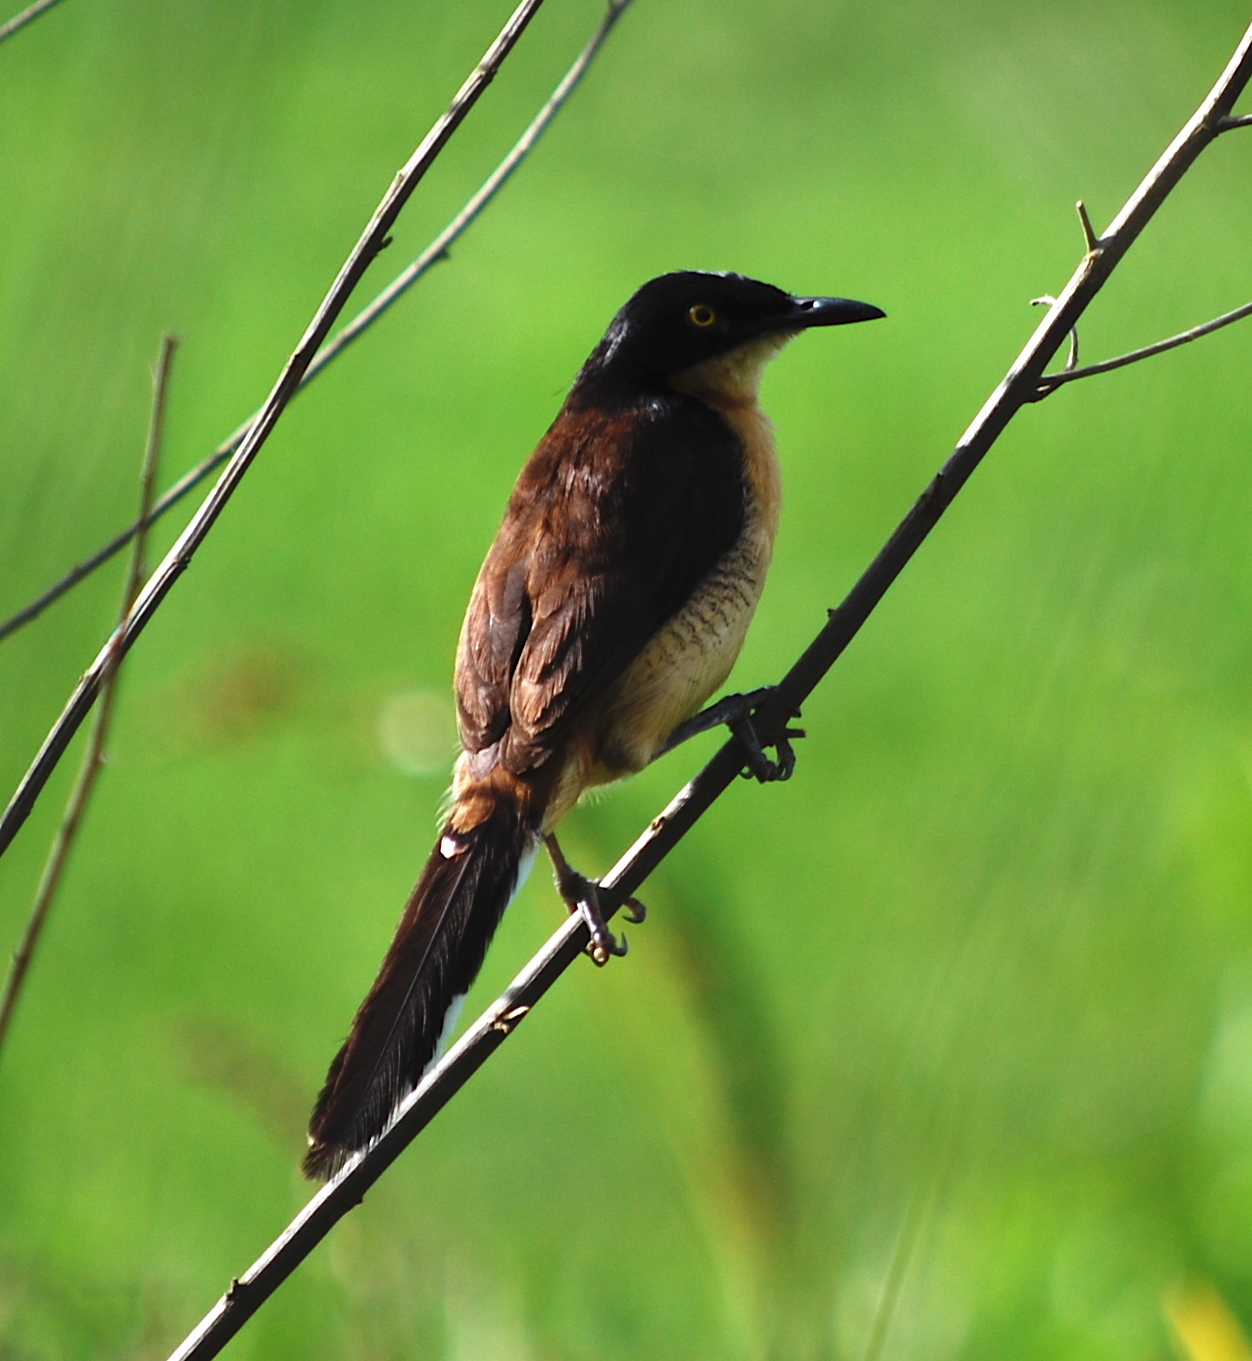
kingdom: Animalia
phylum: Chordata
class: Aves
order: Passeriformes
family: Donacobiidae
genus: Donacobius
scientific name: Donacobius atricapilla
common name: Black-capped donacobius
